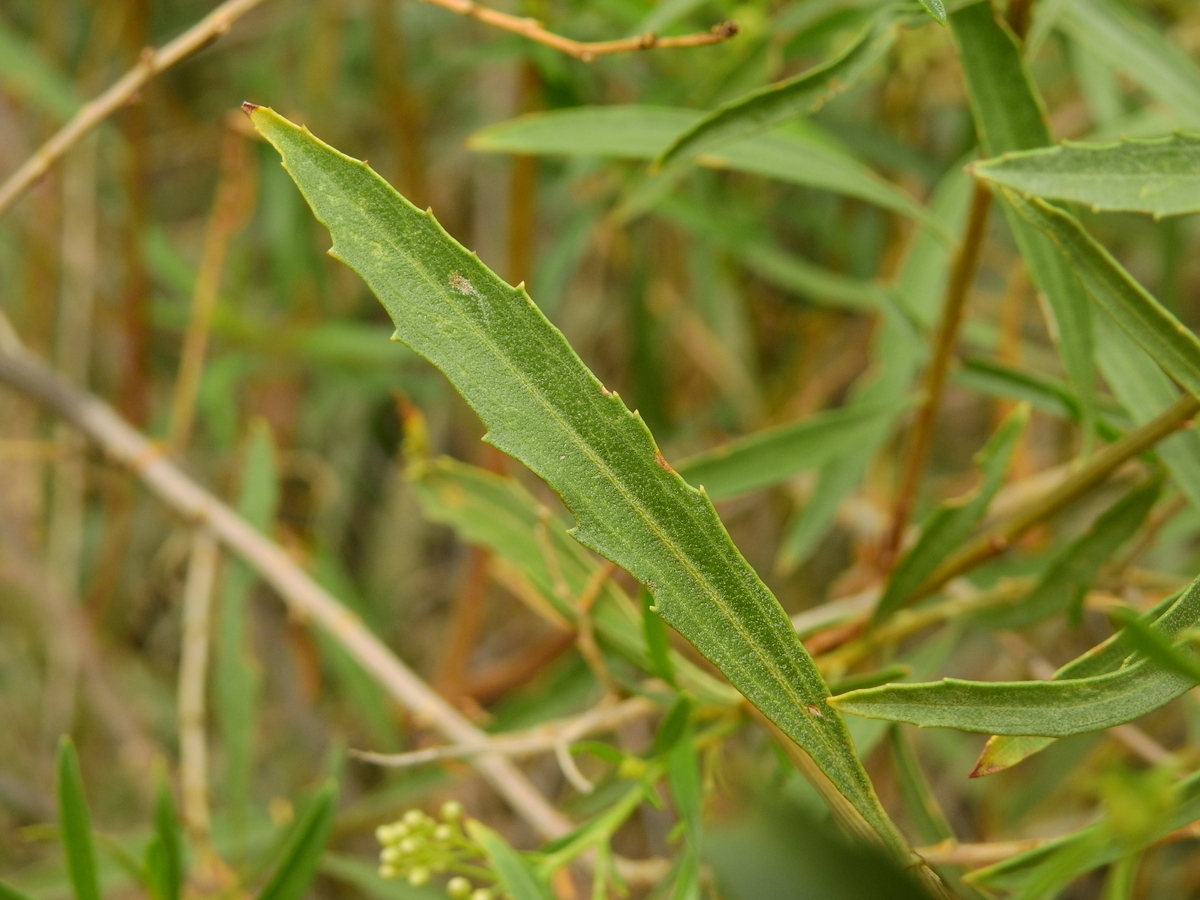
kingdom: Plantae
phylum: Tracheophyta
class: Magnoliopsida
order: Asterales
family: Asteraceae
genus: Baccharis
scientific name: Baccharis salicifolia
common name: Sticky baccharis
